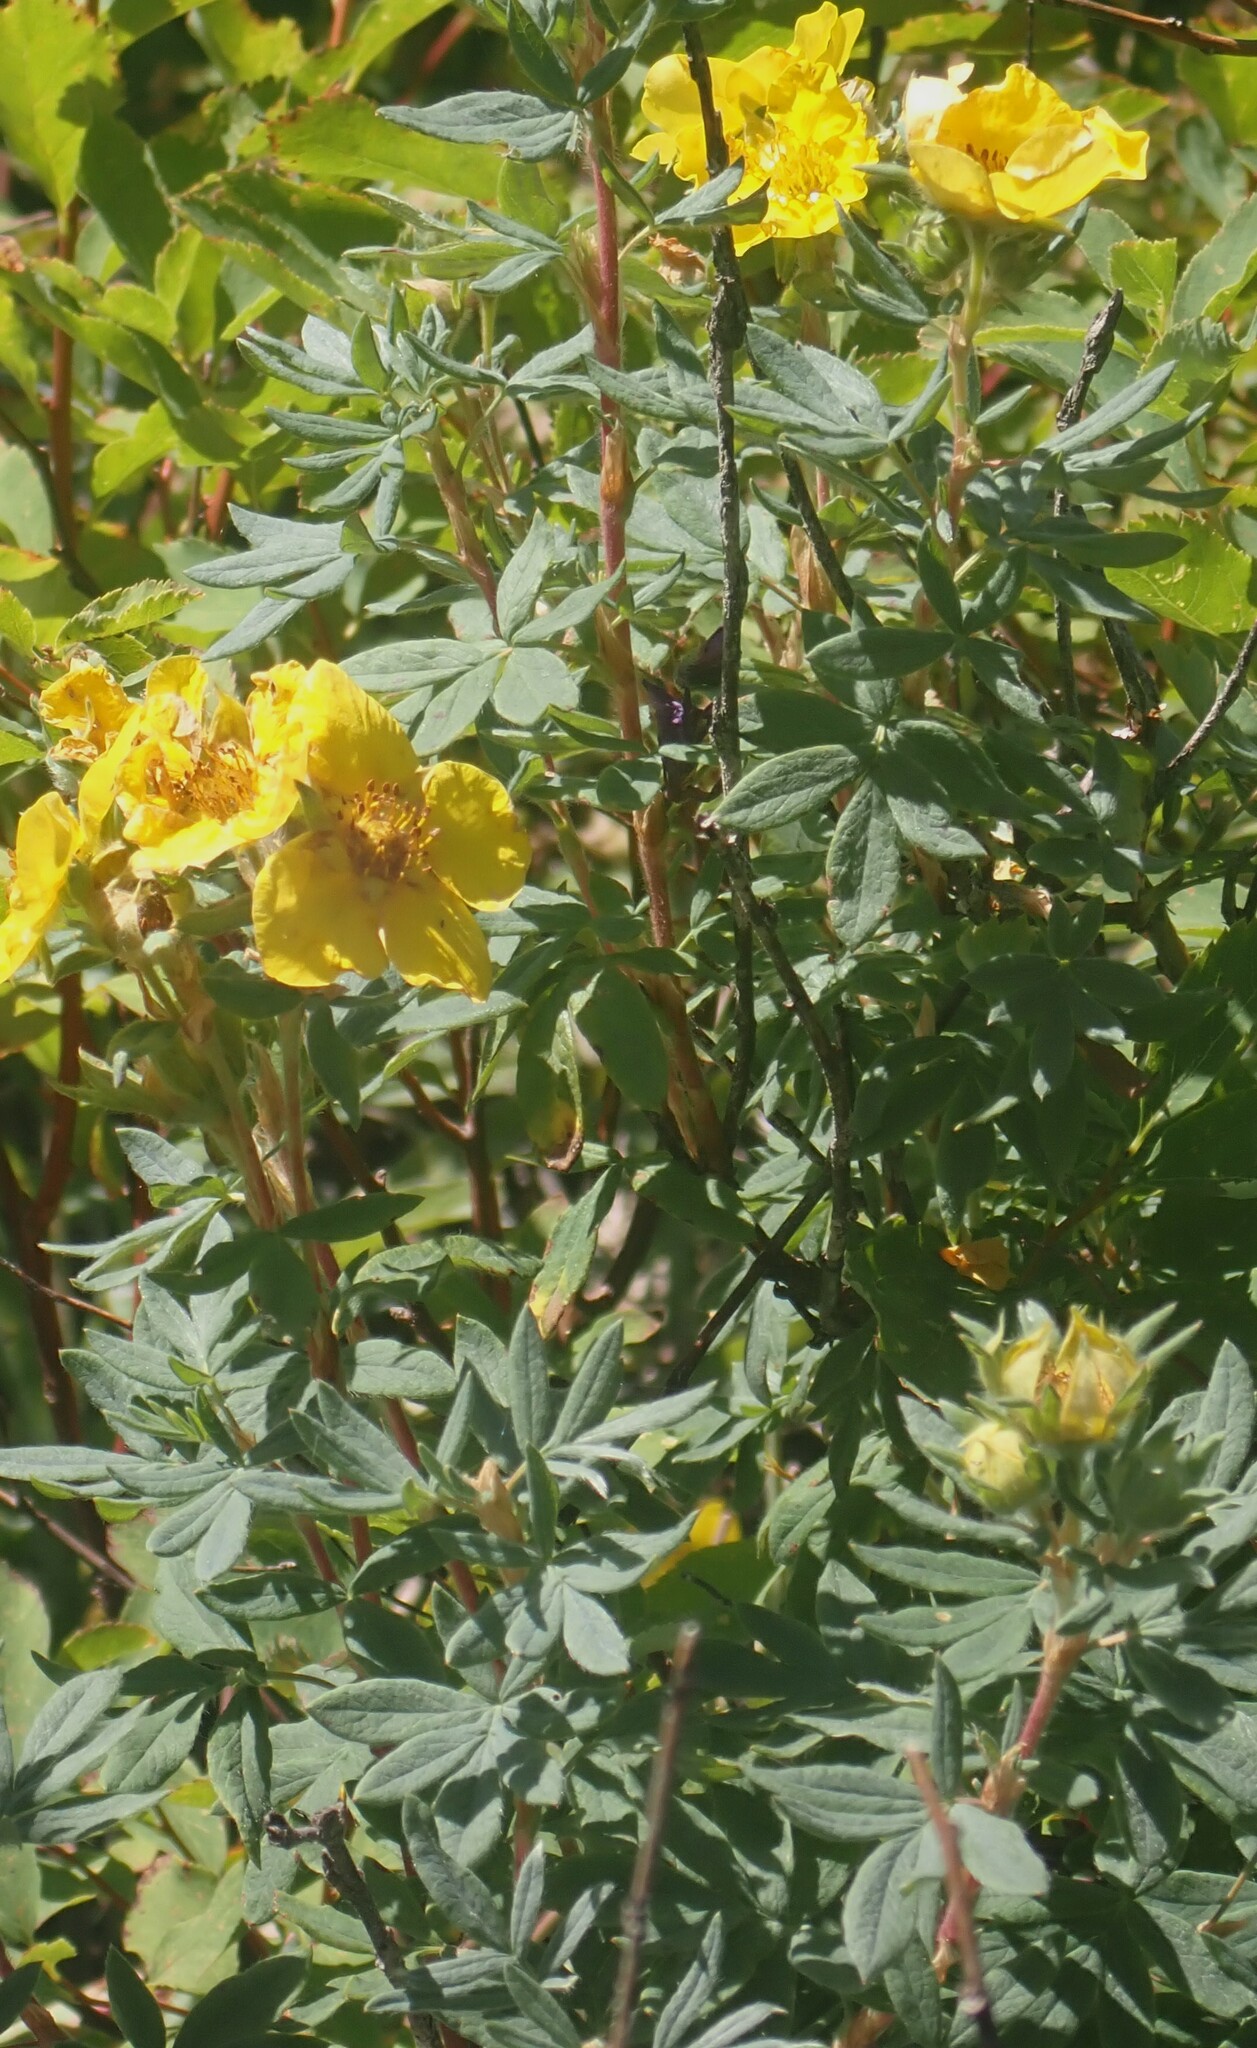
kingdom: Plantae
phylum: Tracheophyta
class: Magnoliopsida
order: Rosales
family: Rosaceae
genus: Dasiphora
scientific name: Dasiphora fruticosa
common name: Shrubby cinquefoil
